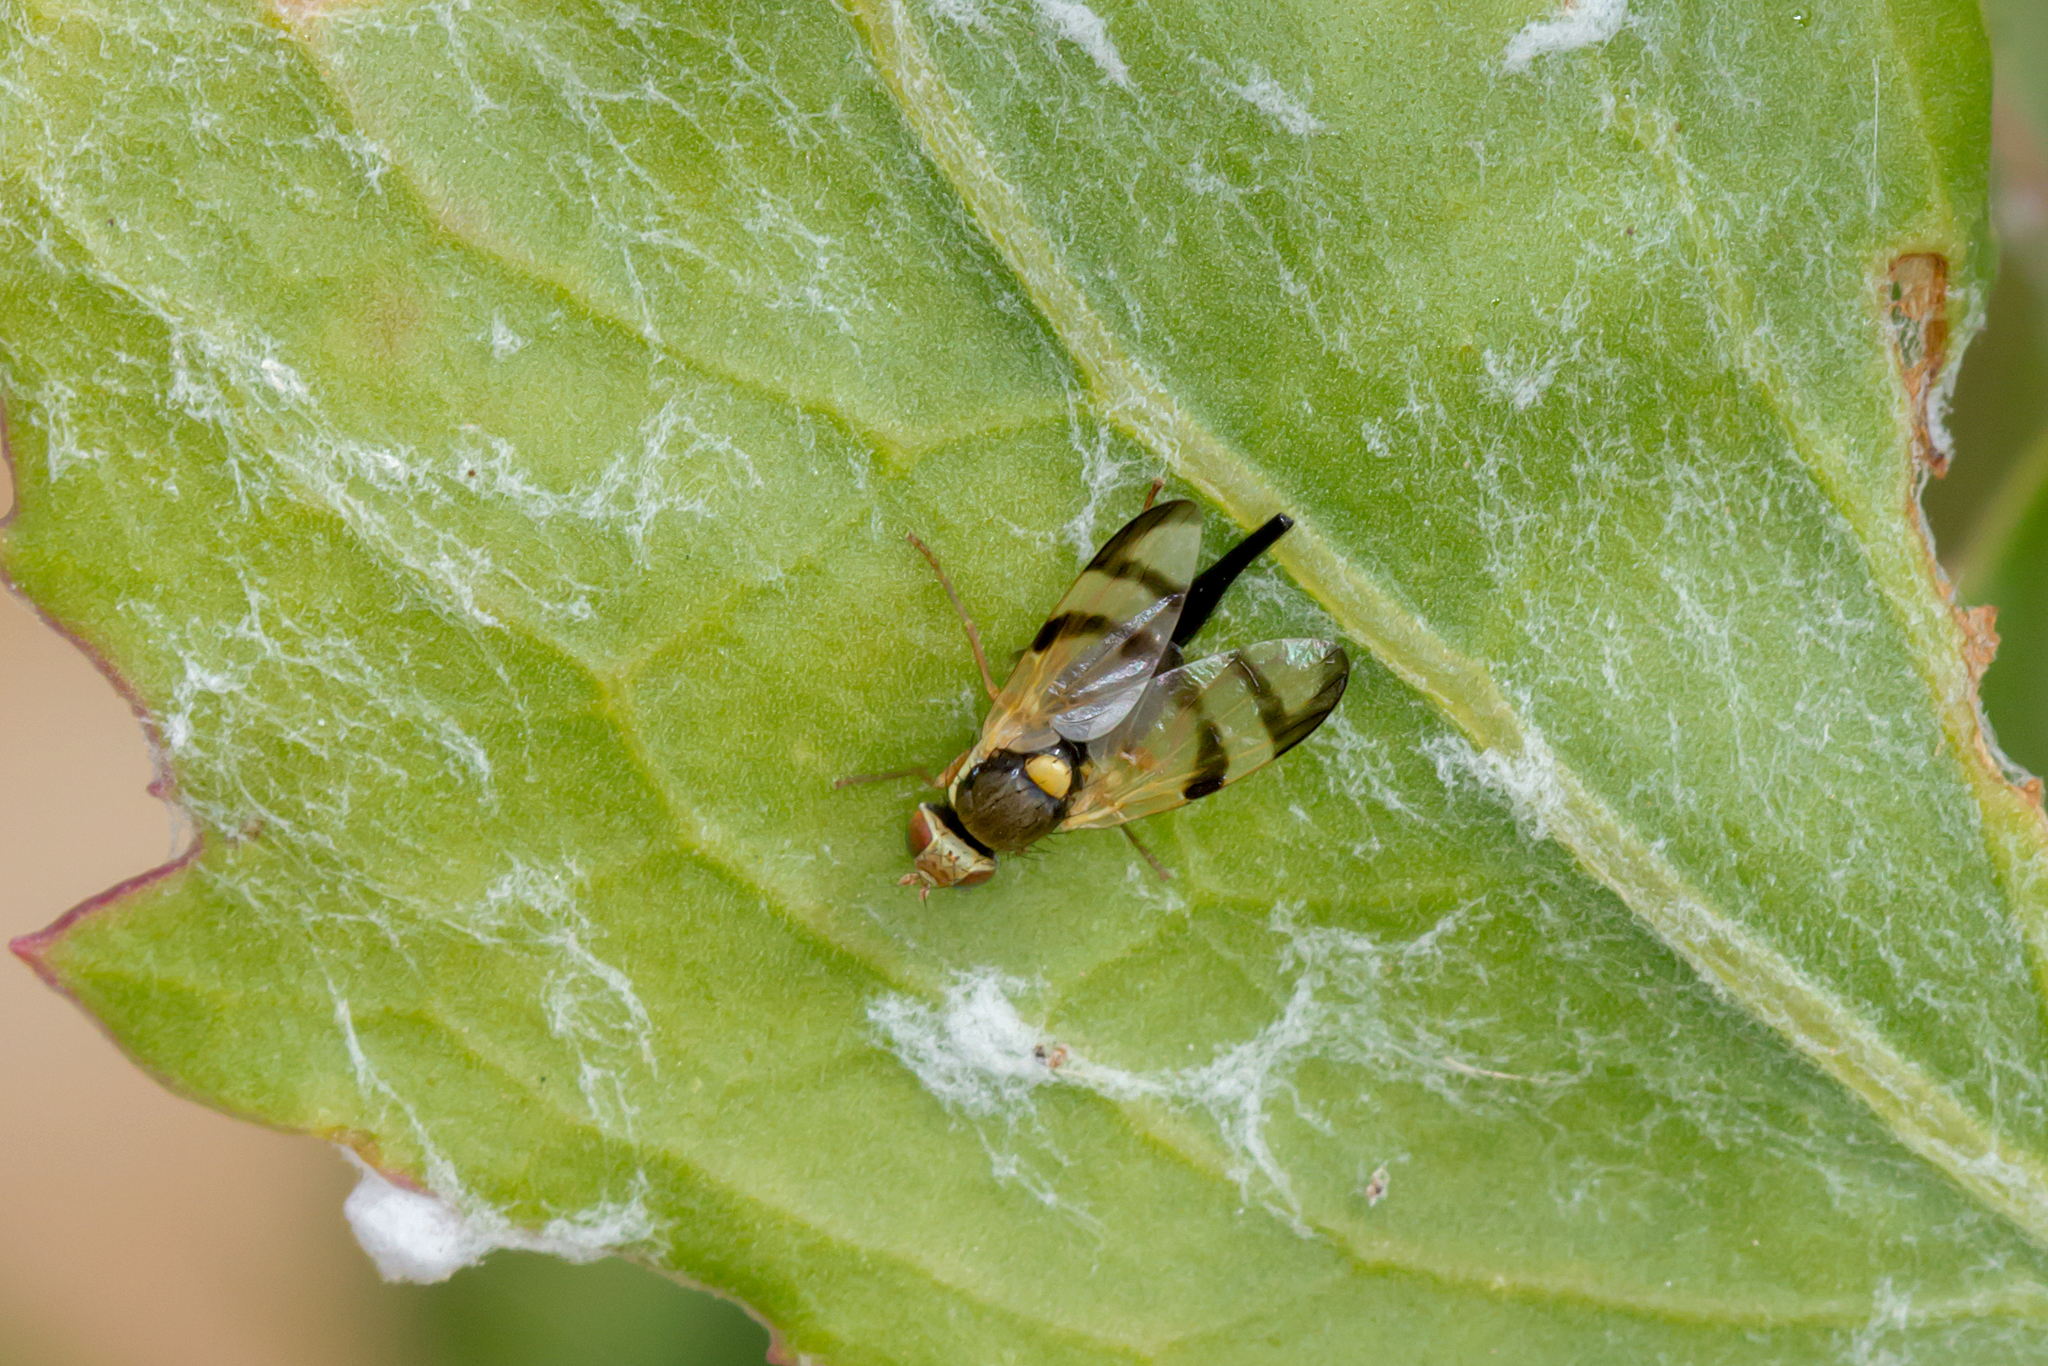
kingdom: Animalia
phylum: Arthropoda
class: Insecta
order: Diptera
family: Tephritidae
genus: Urophora
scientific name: Urophora stylata
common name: Fruit fly
